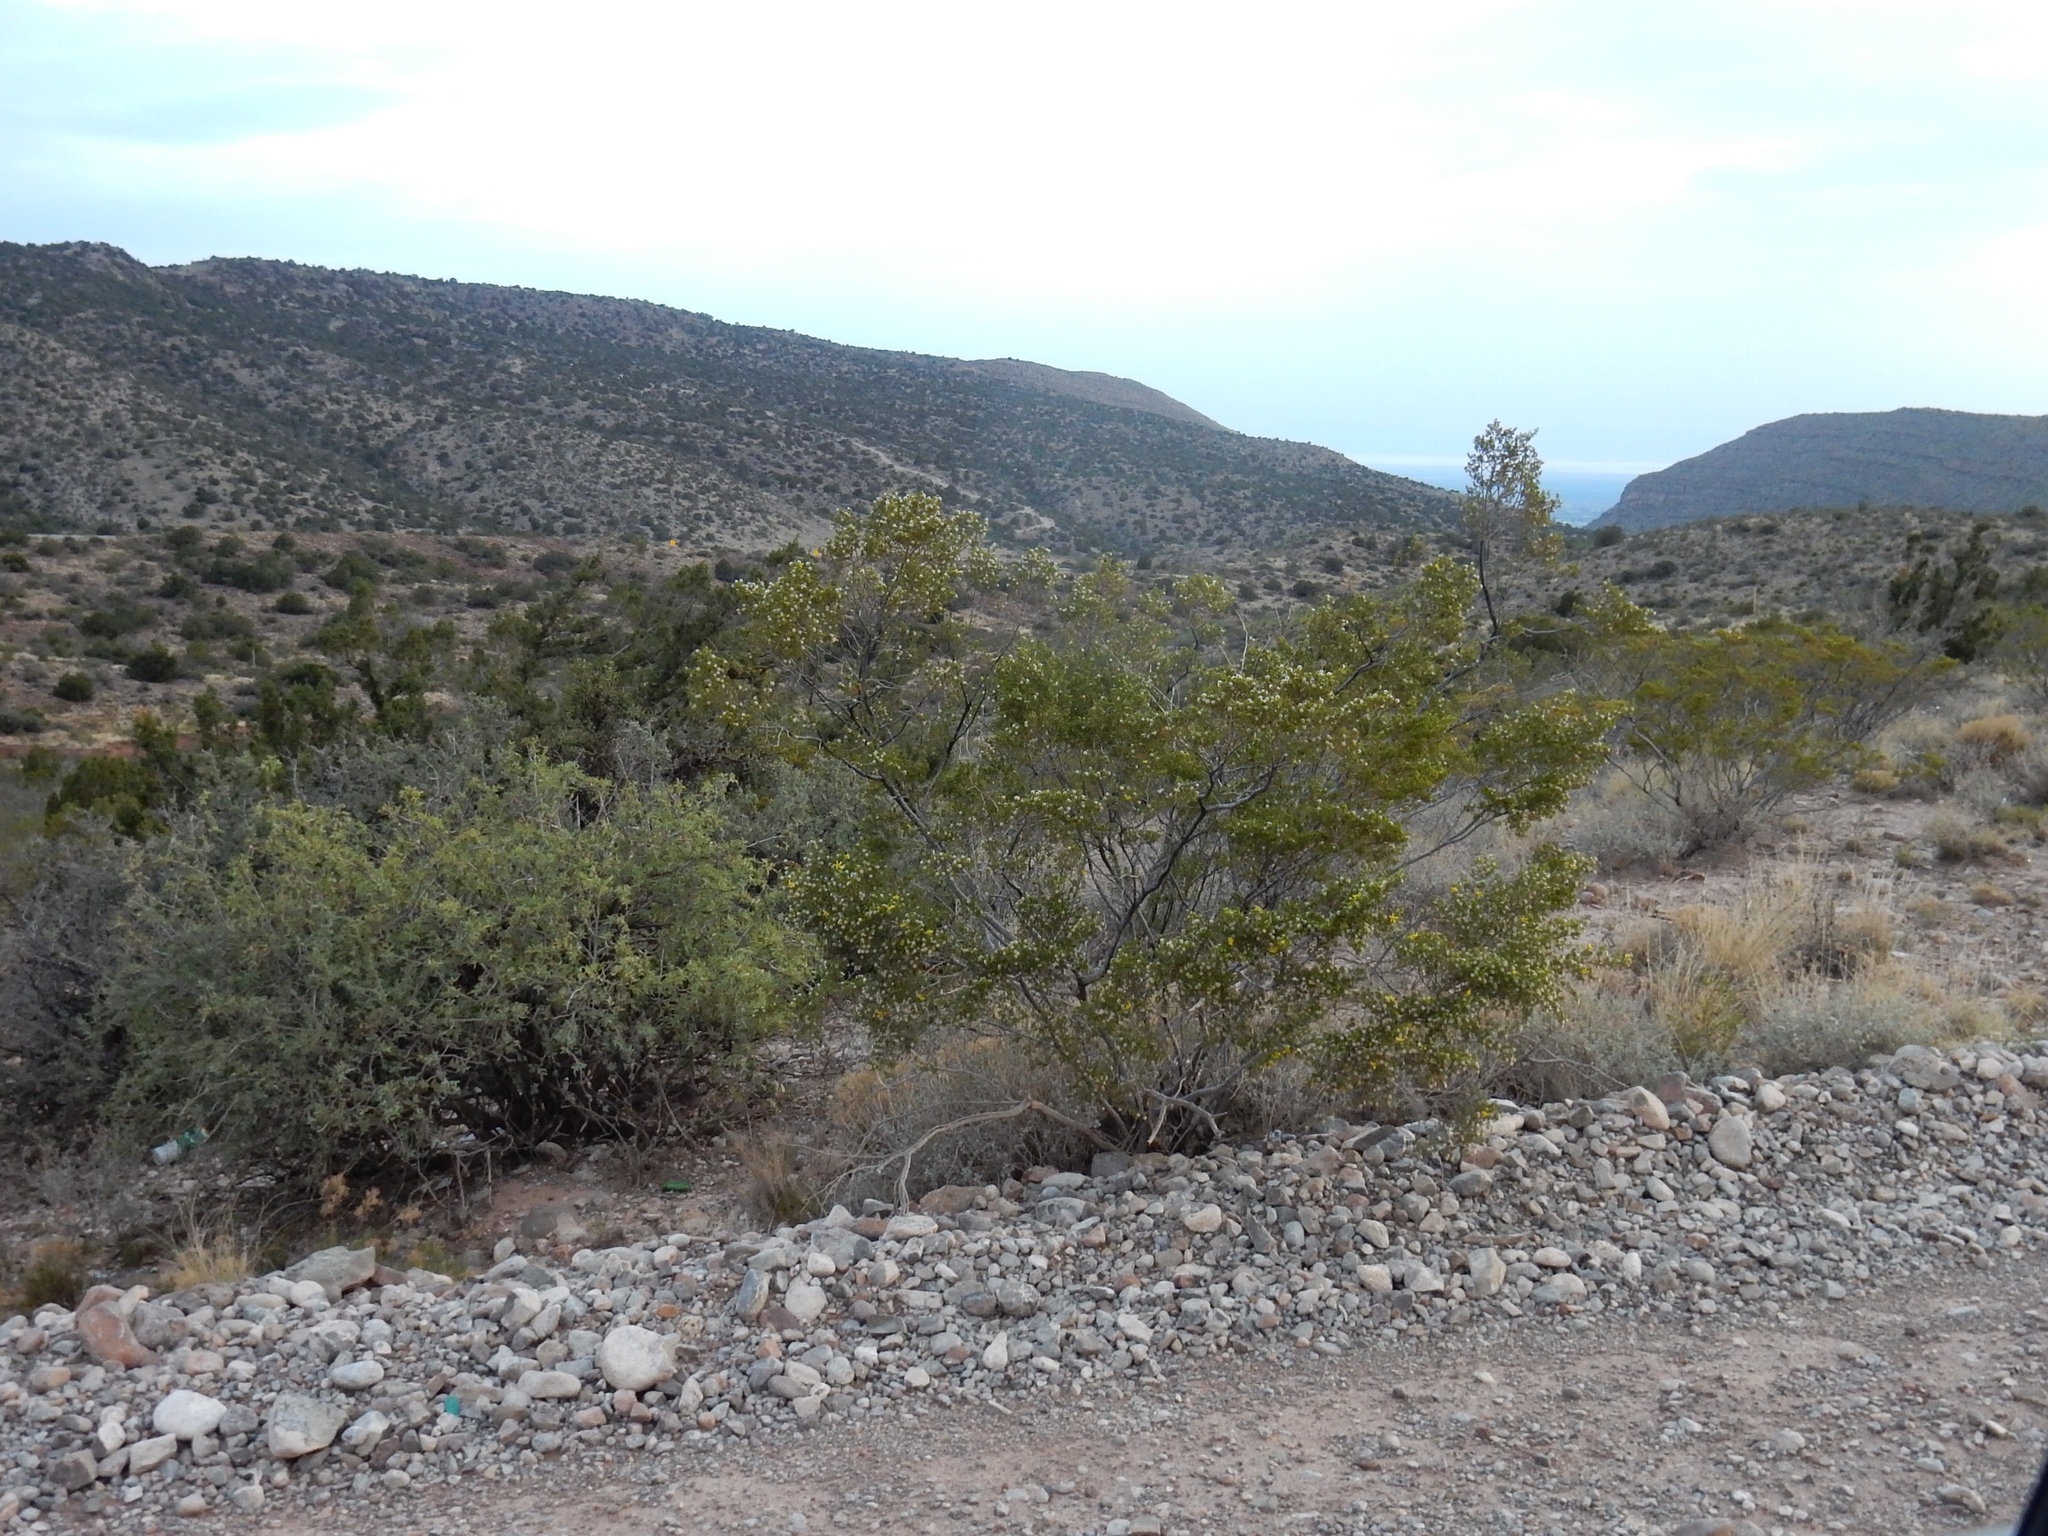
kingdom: Plantae
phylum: Tracheophyta
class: Magnoliopsida
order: Zygophyllales
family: Zygophyllaceae
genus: Larrea
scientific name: Larrea tridentata
